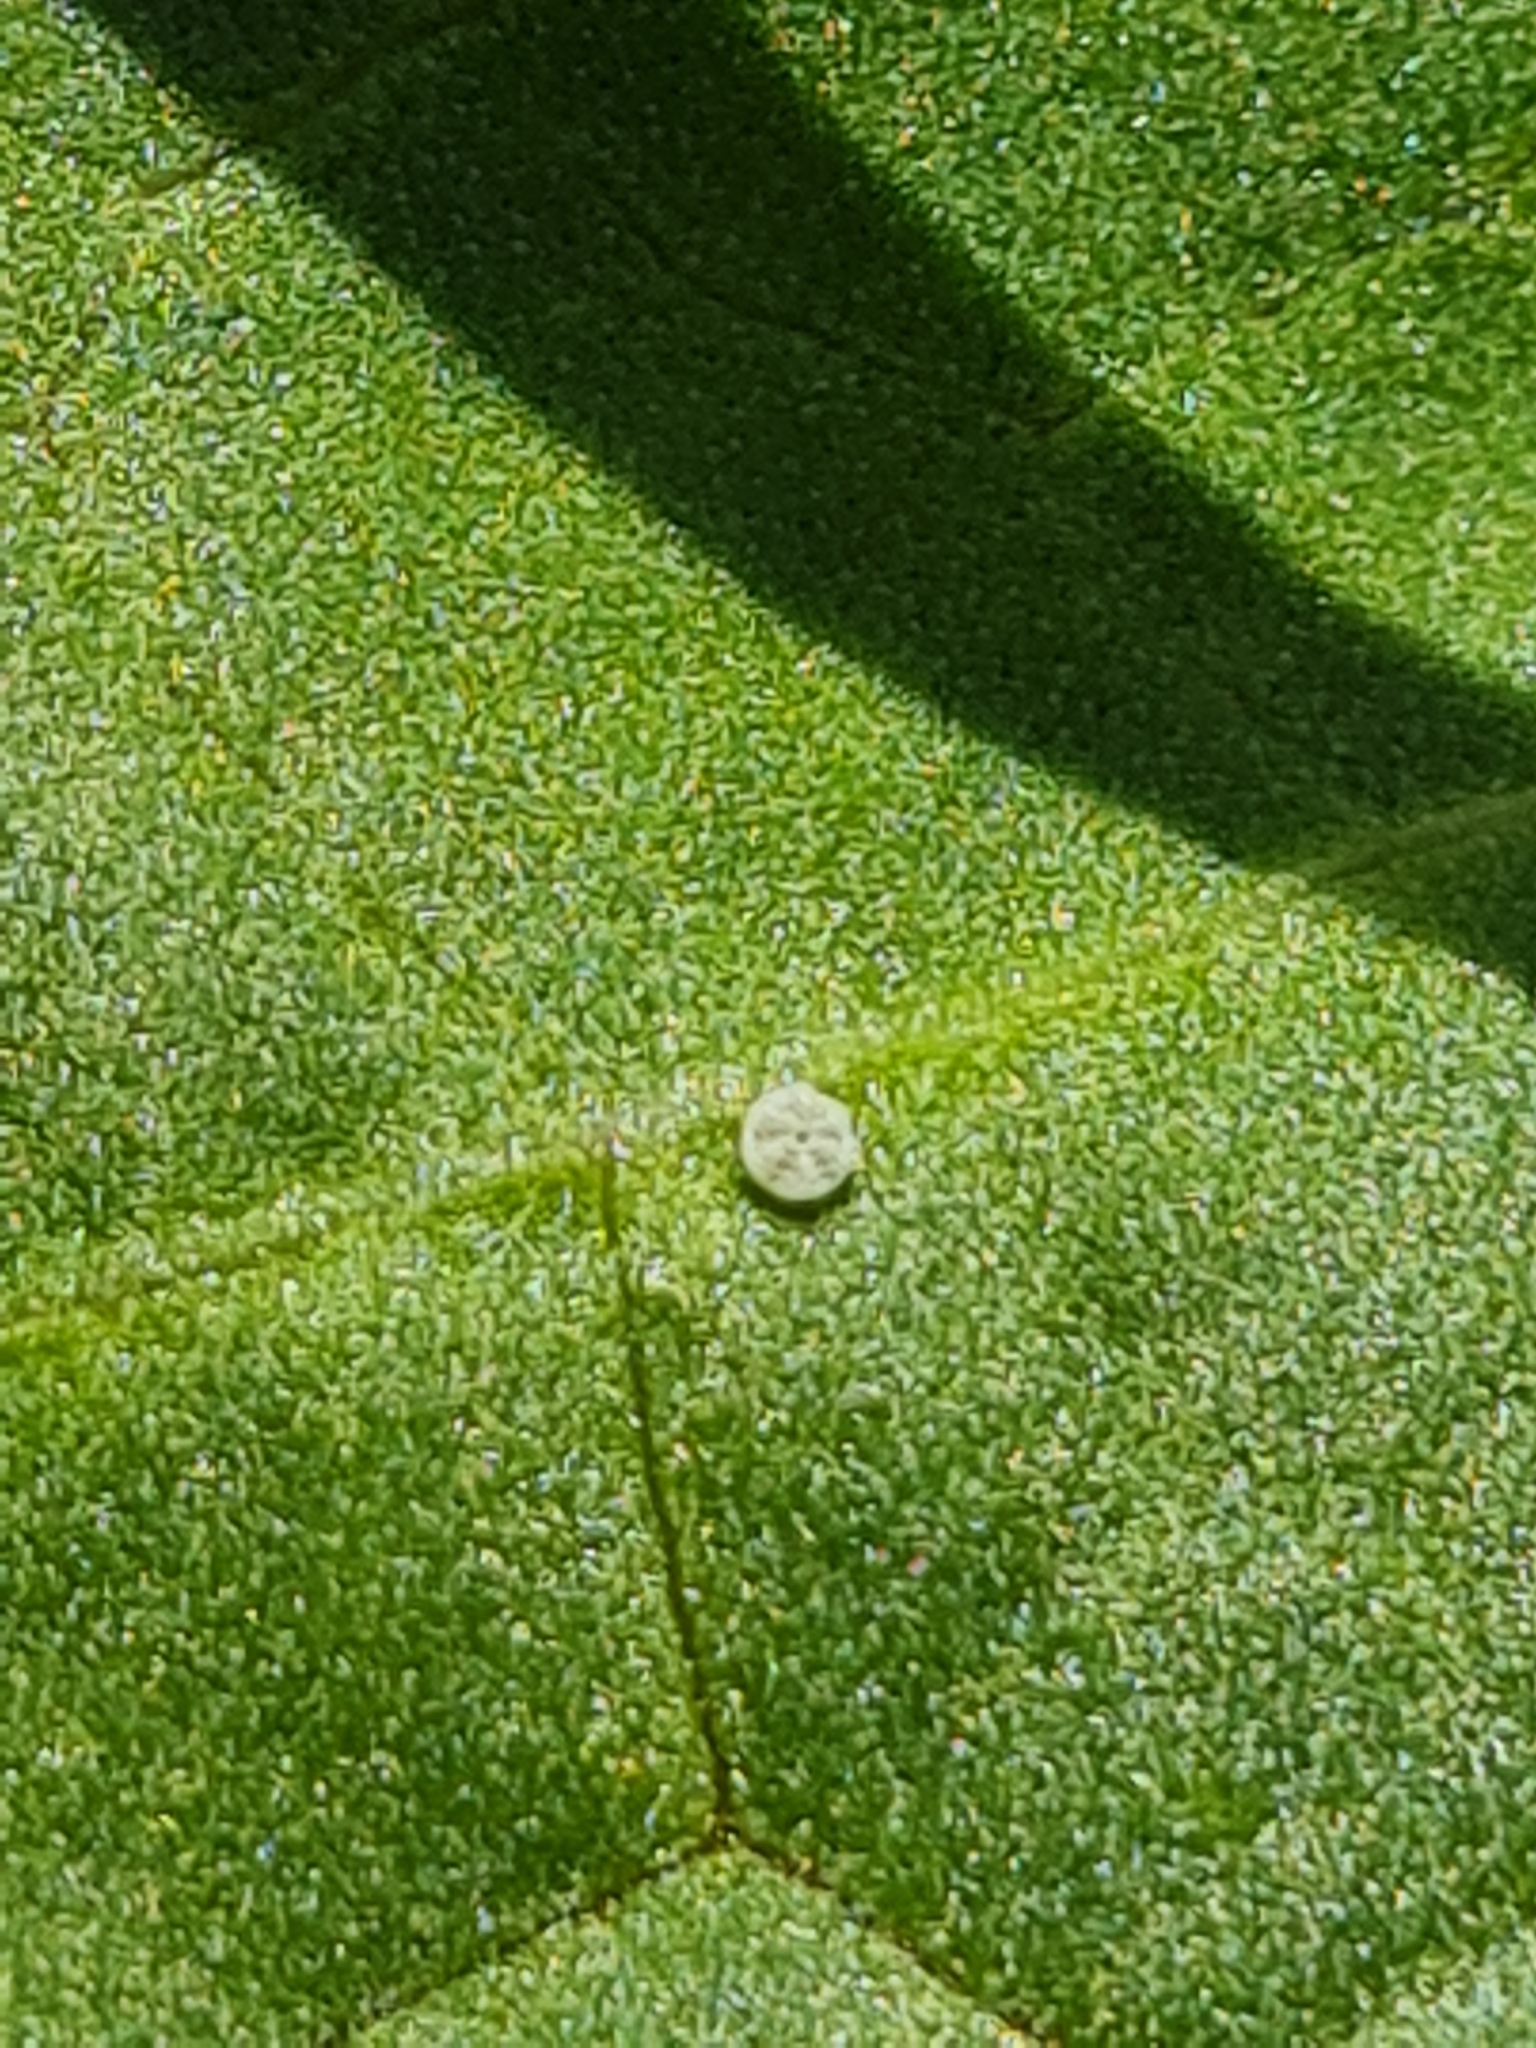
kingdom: Animalia
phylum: Arthropoda
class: Insecta
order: Lepidoptera
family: Lycaenidae
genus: Lycaena
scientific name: Lycaena dispar
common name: Large copper
